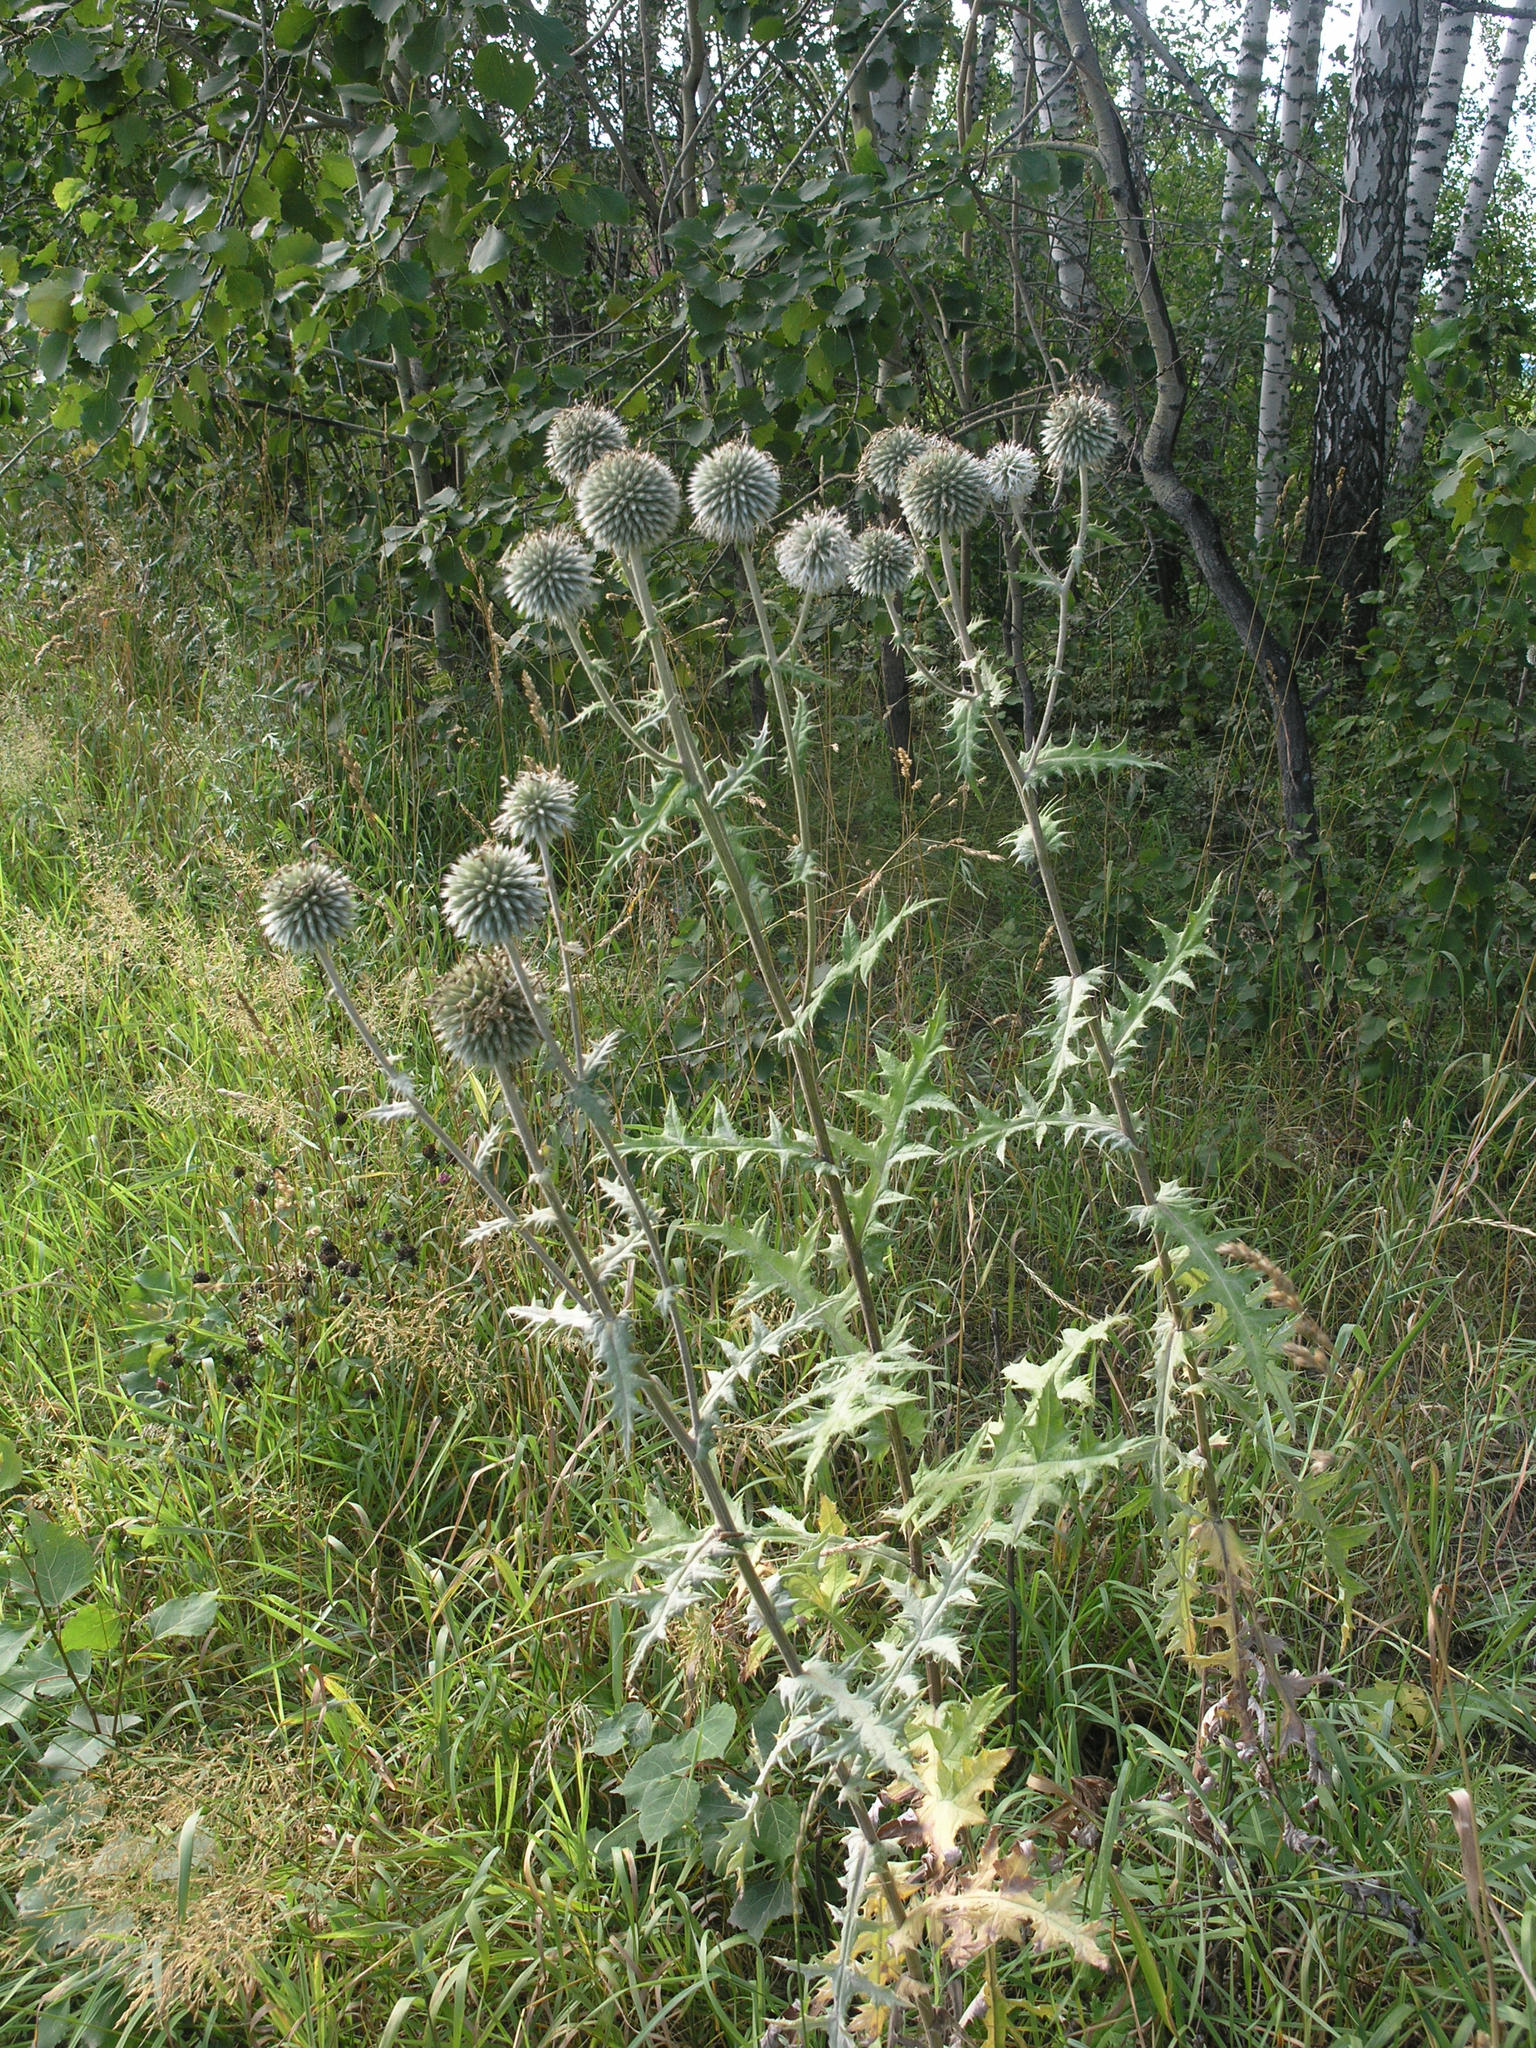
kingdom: Plantae
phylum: Tracheophyta
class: Magnoliopsida
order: Asterales
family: Asteraceae
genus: Echinops
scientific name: Echinops sphaerocephalus
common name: Glandular globe-thistle
